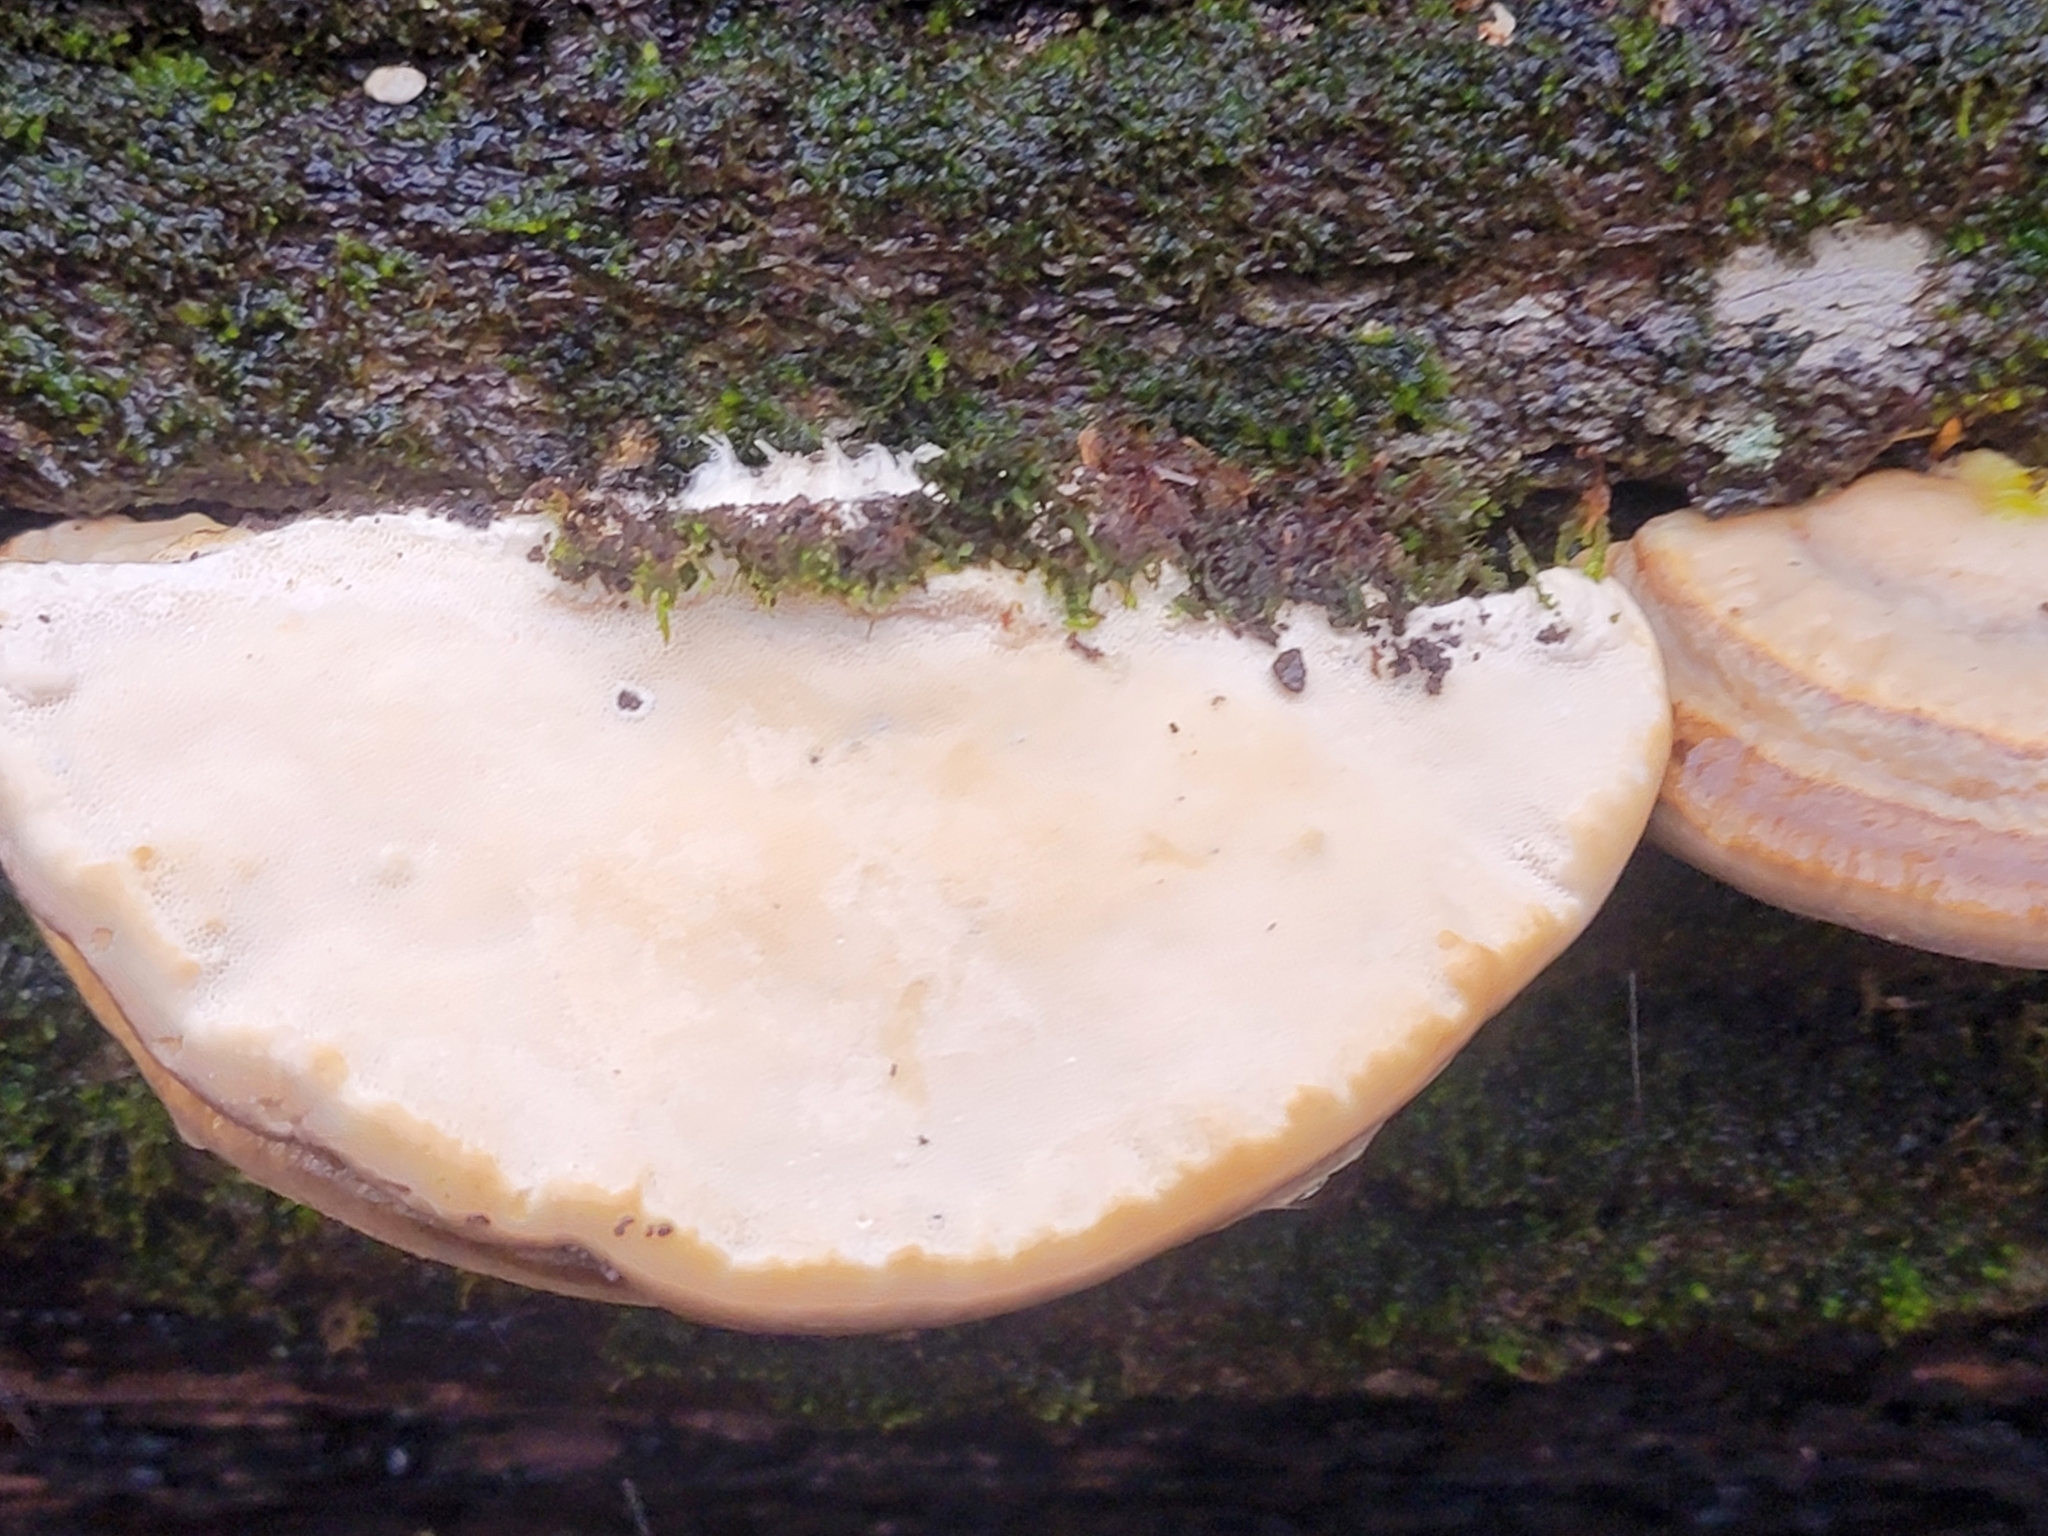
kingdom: Fungi
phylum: Basidiomycota
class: Agaricomycetes
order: Polyporales
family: Polyporaceae
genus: Trametes
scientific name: Trametes lactinea
